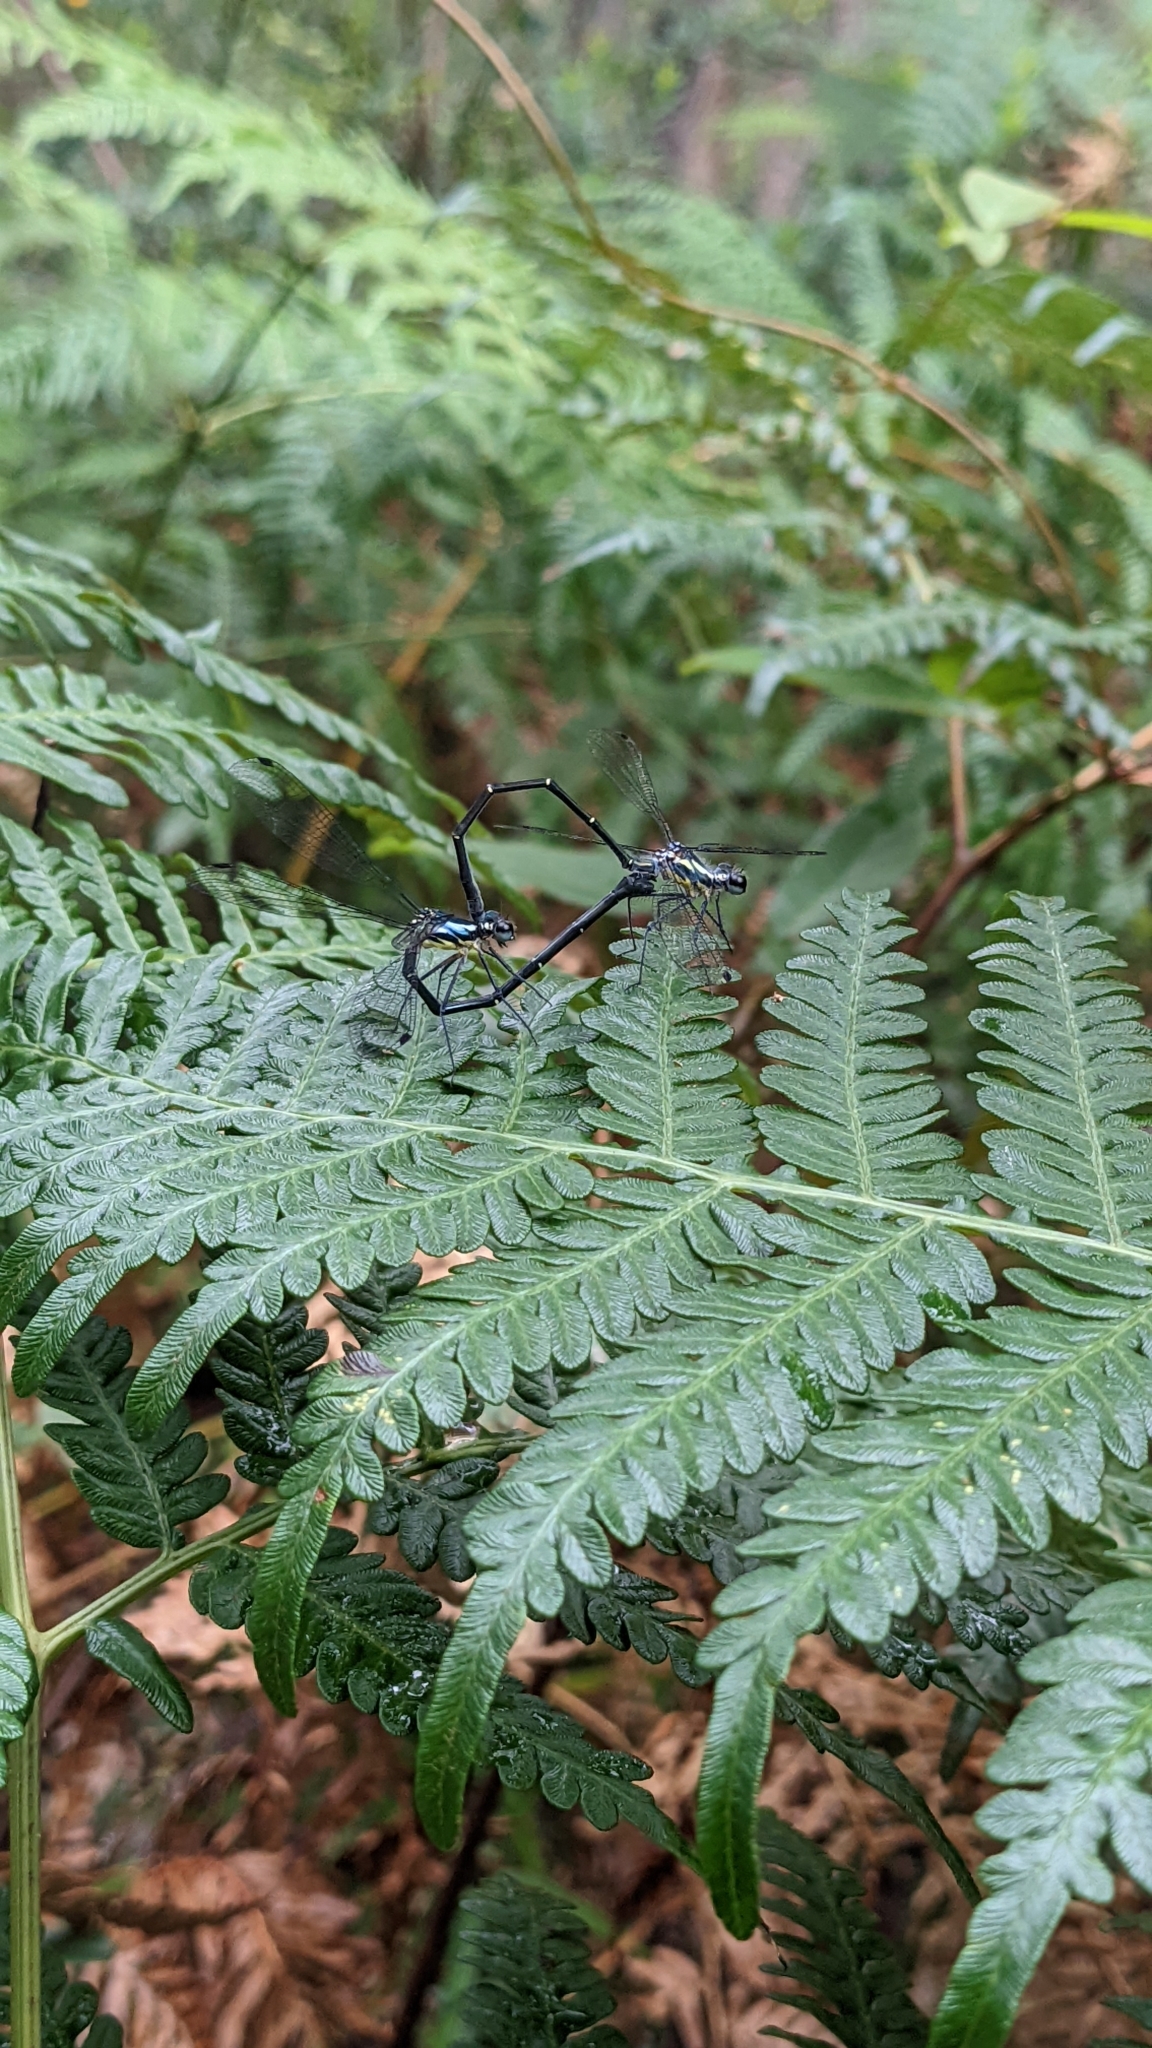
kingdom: Animalia
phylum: Arthropoda
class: Insecta
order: Odonata
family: Argiolestidae
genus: Austroargiolestes
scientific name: Austroargiolestes icteromelas
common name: Common flatwing
